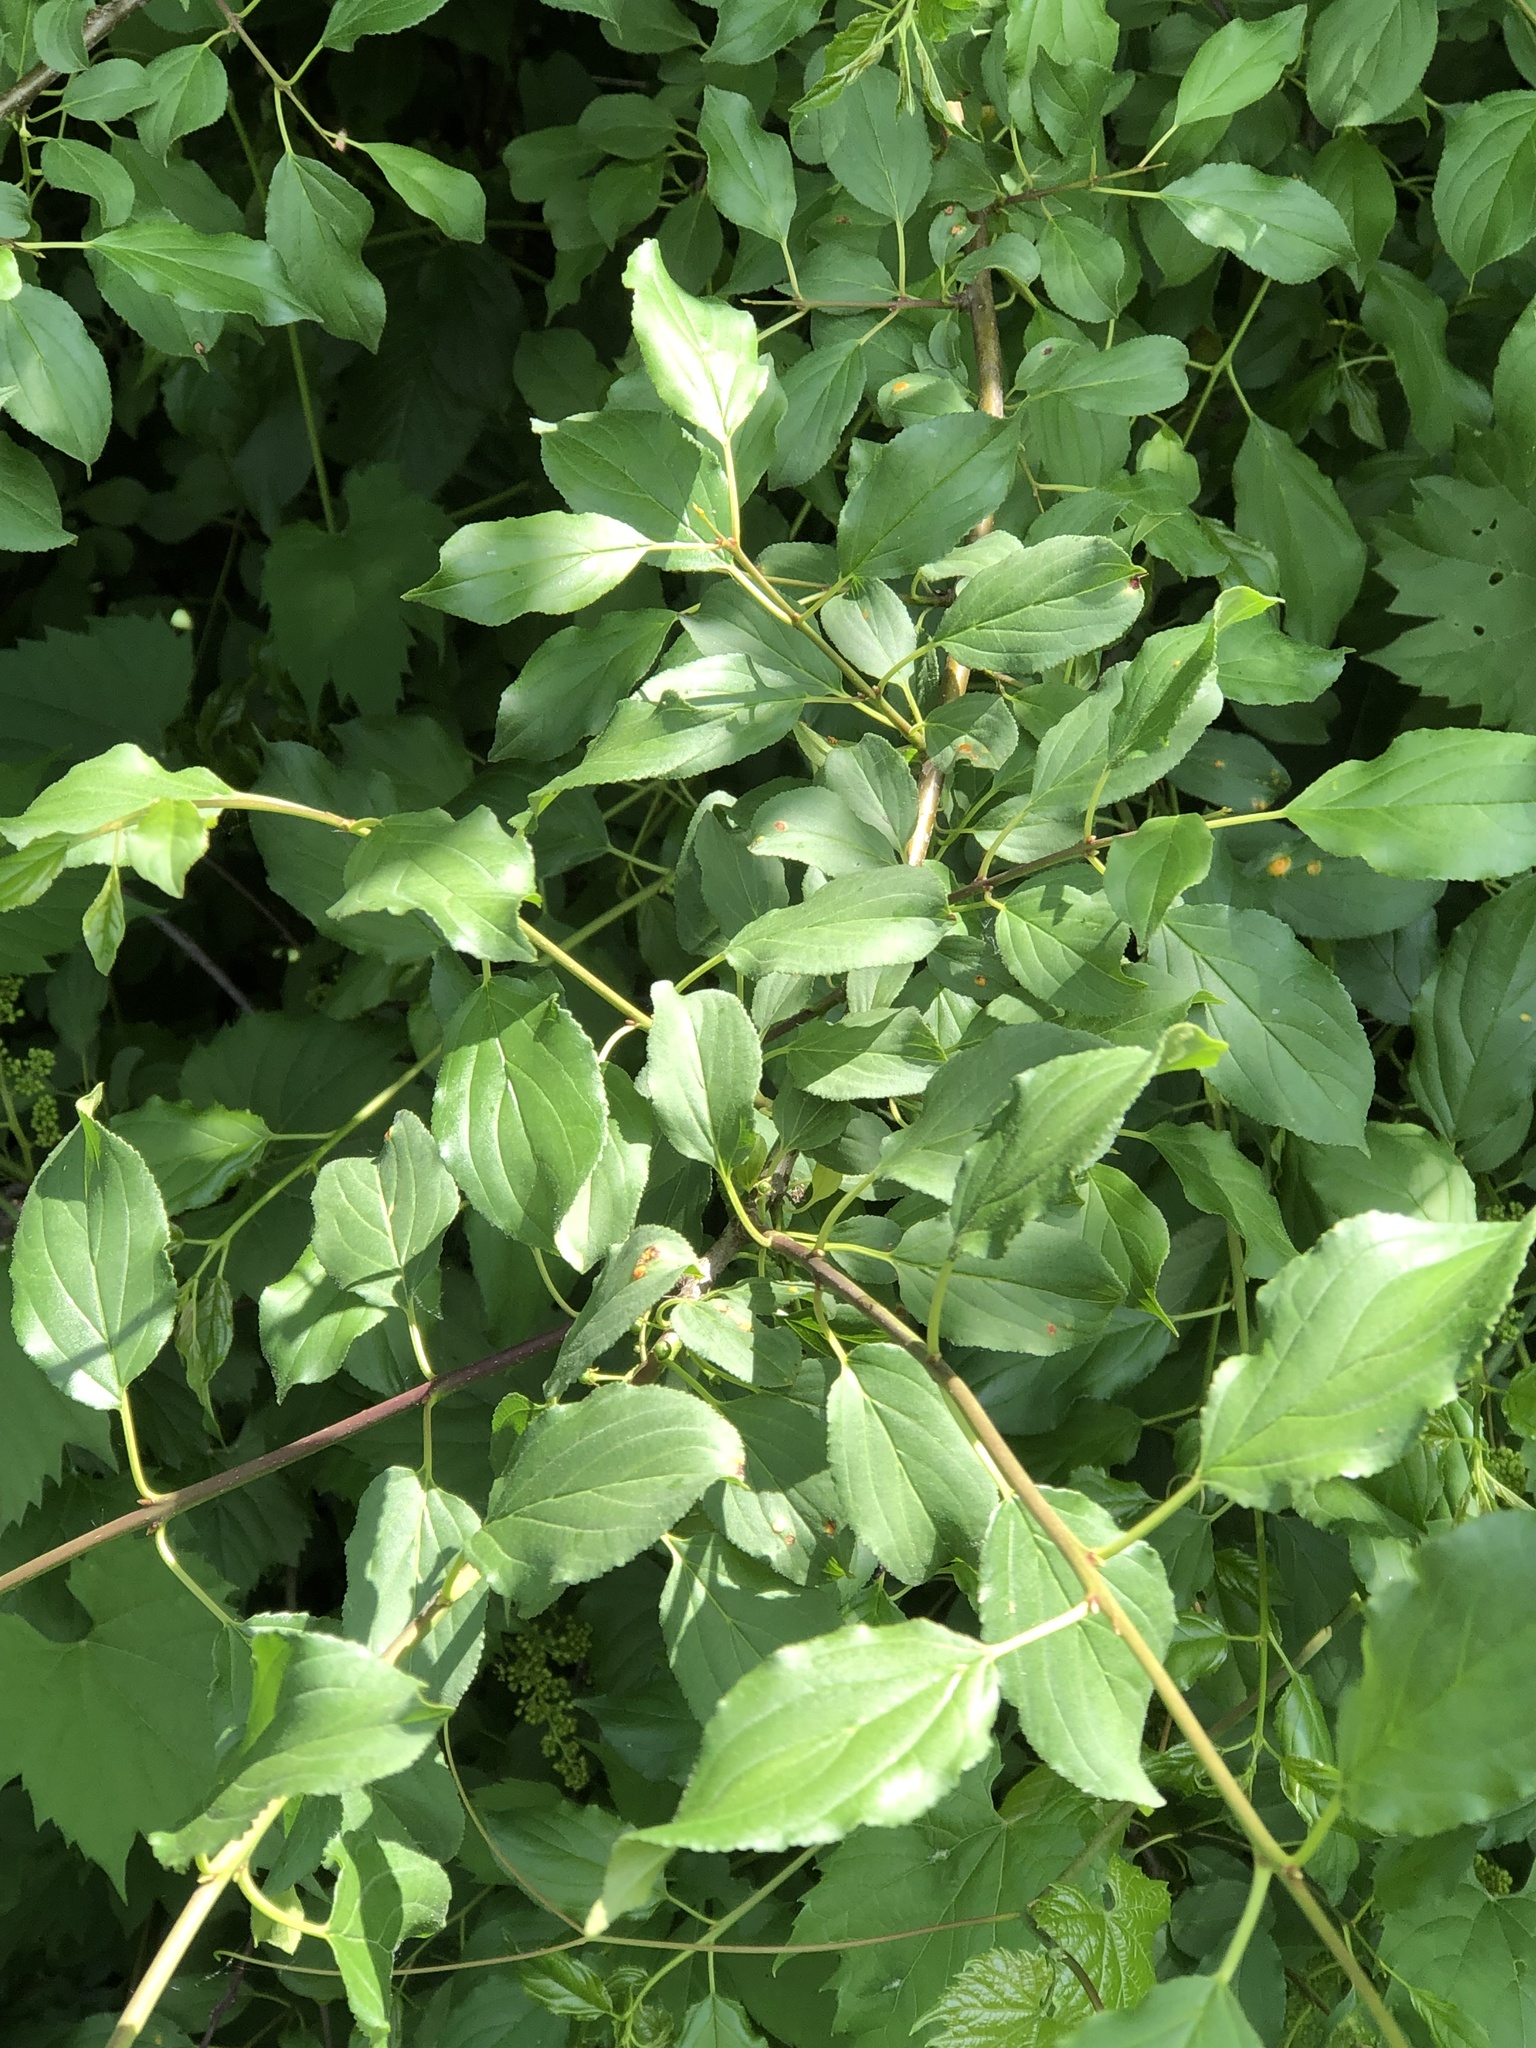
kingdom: Plantae
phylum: Tracheophyta
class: Magnoliopsida
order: Rosales
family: Rhamnaceae
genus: Rhamnus
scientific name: Rhamnus cathartica
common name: Common buckthorn
